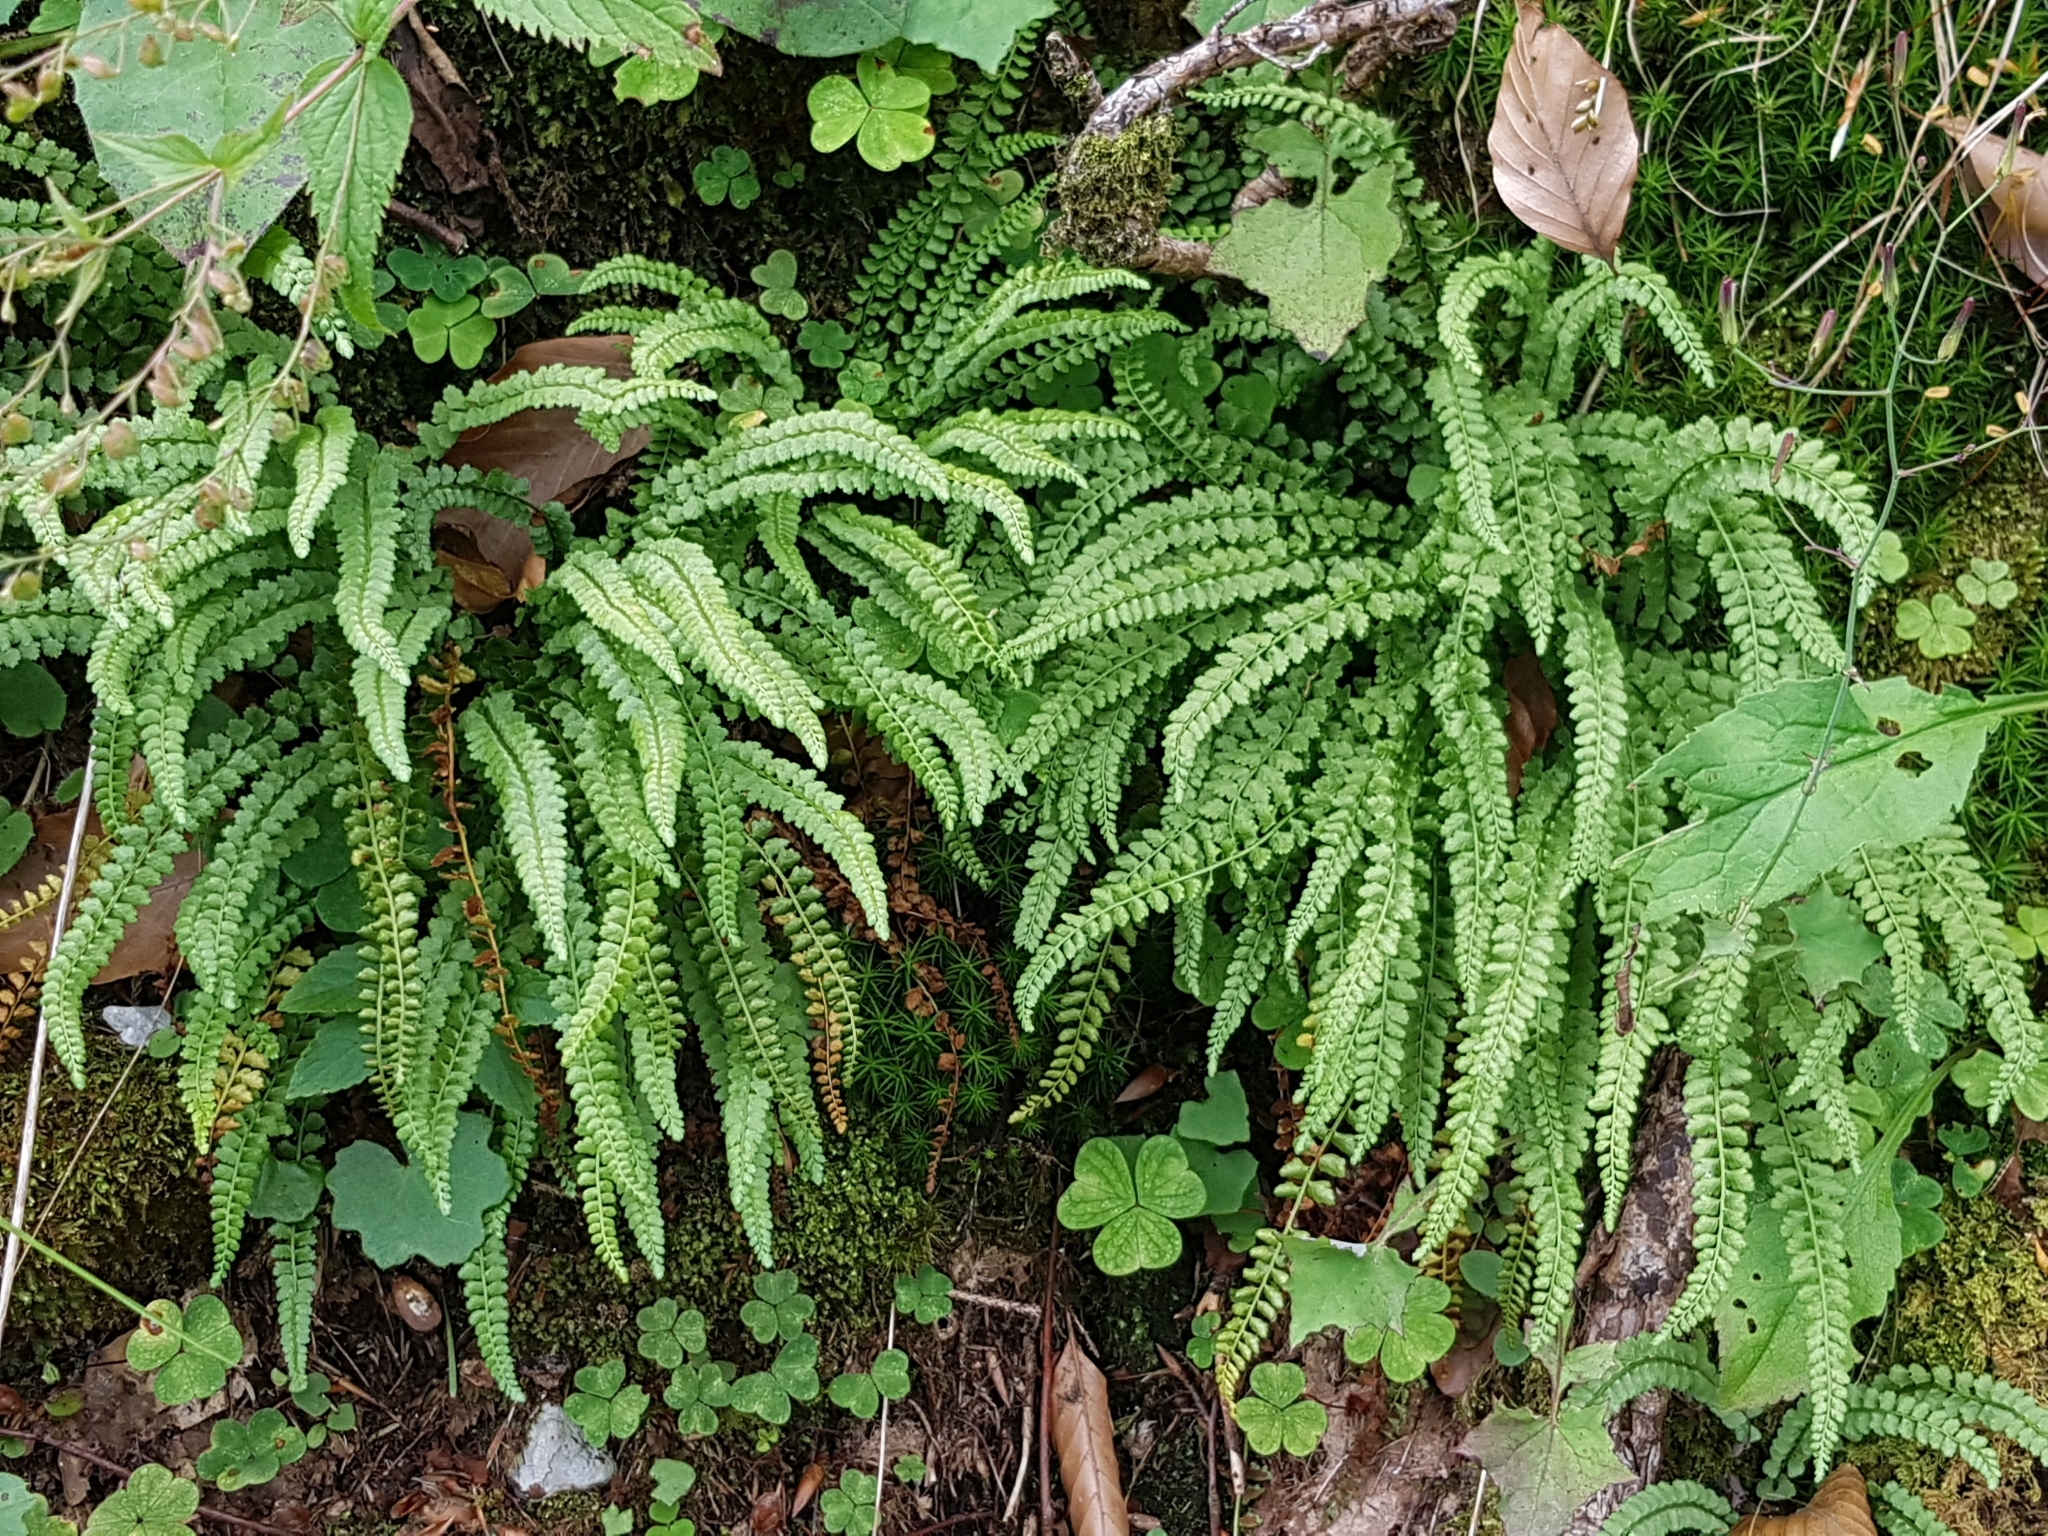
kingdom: Plantae
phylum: Tracheophyta
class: Polypodiopsida
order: Polypodiales
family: Aspleniaceae
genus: Asplenium
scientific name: Asplenium viride
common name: Green spleenwort
